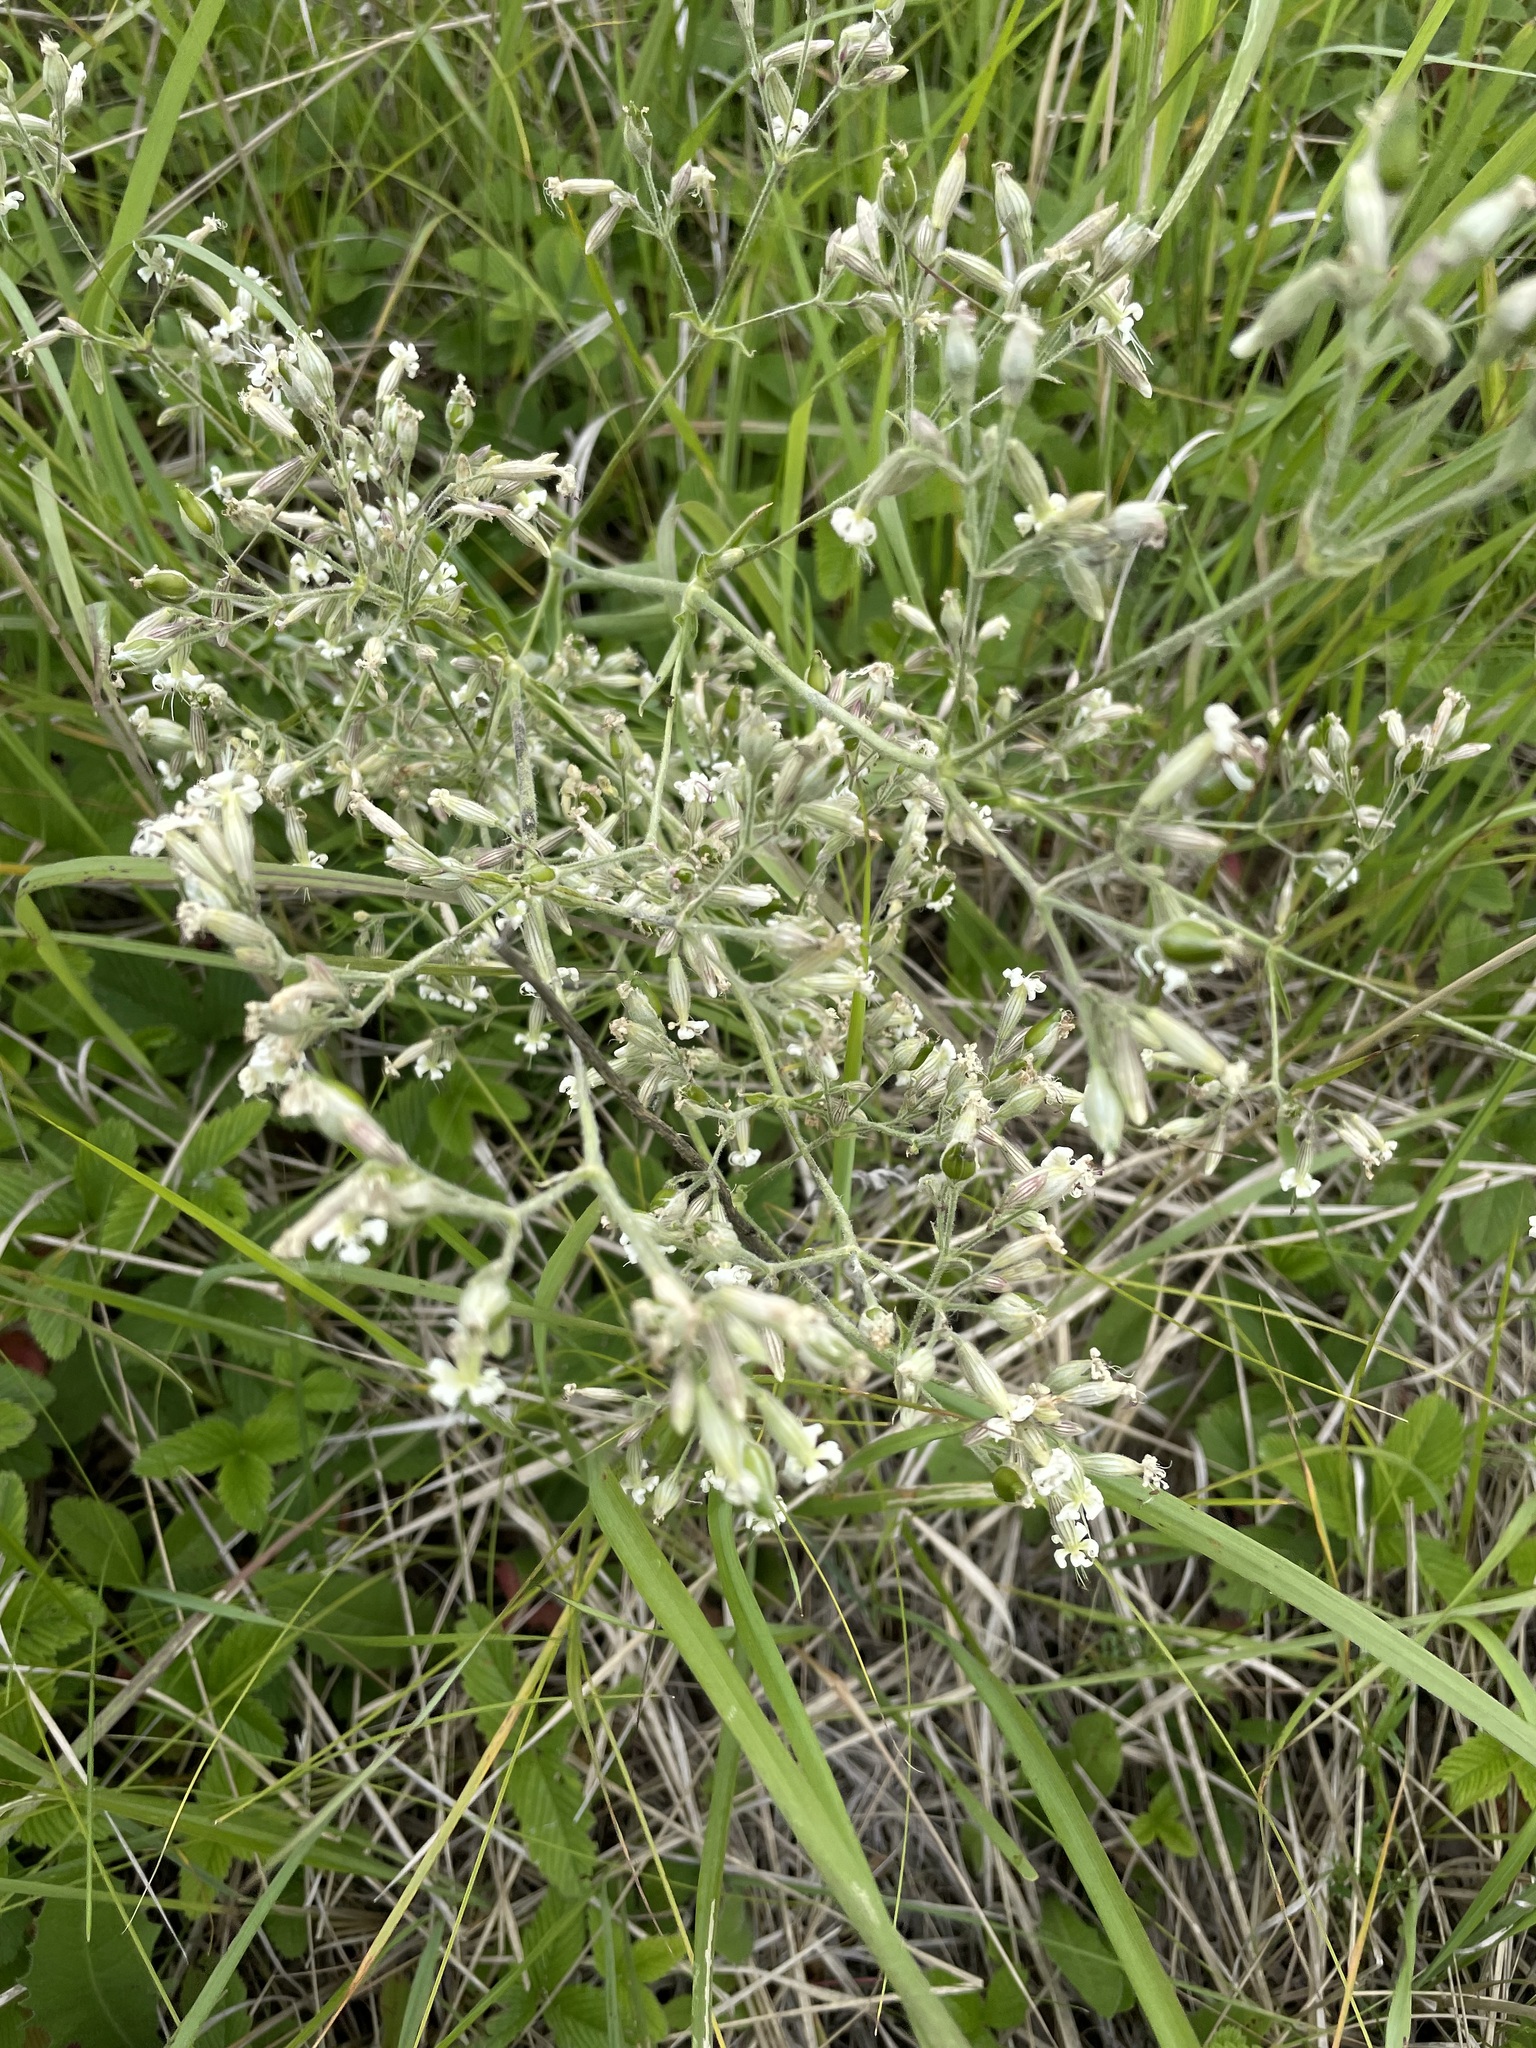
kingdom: Plantae
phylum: Tracheophyta
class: Magnoliopsida
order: Caryophyllales
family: Caryophyllaceae
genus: Silene
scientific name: Silene nutans
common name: Nottingham catchfly
